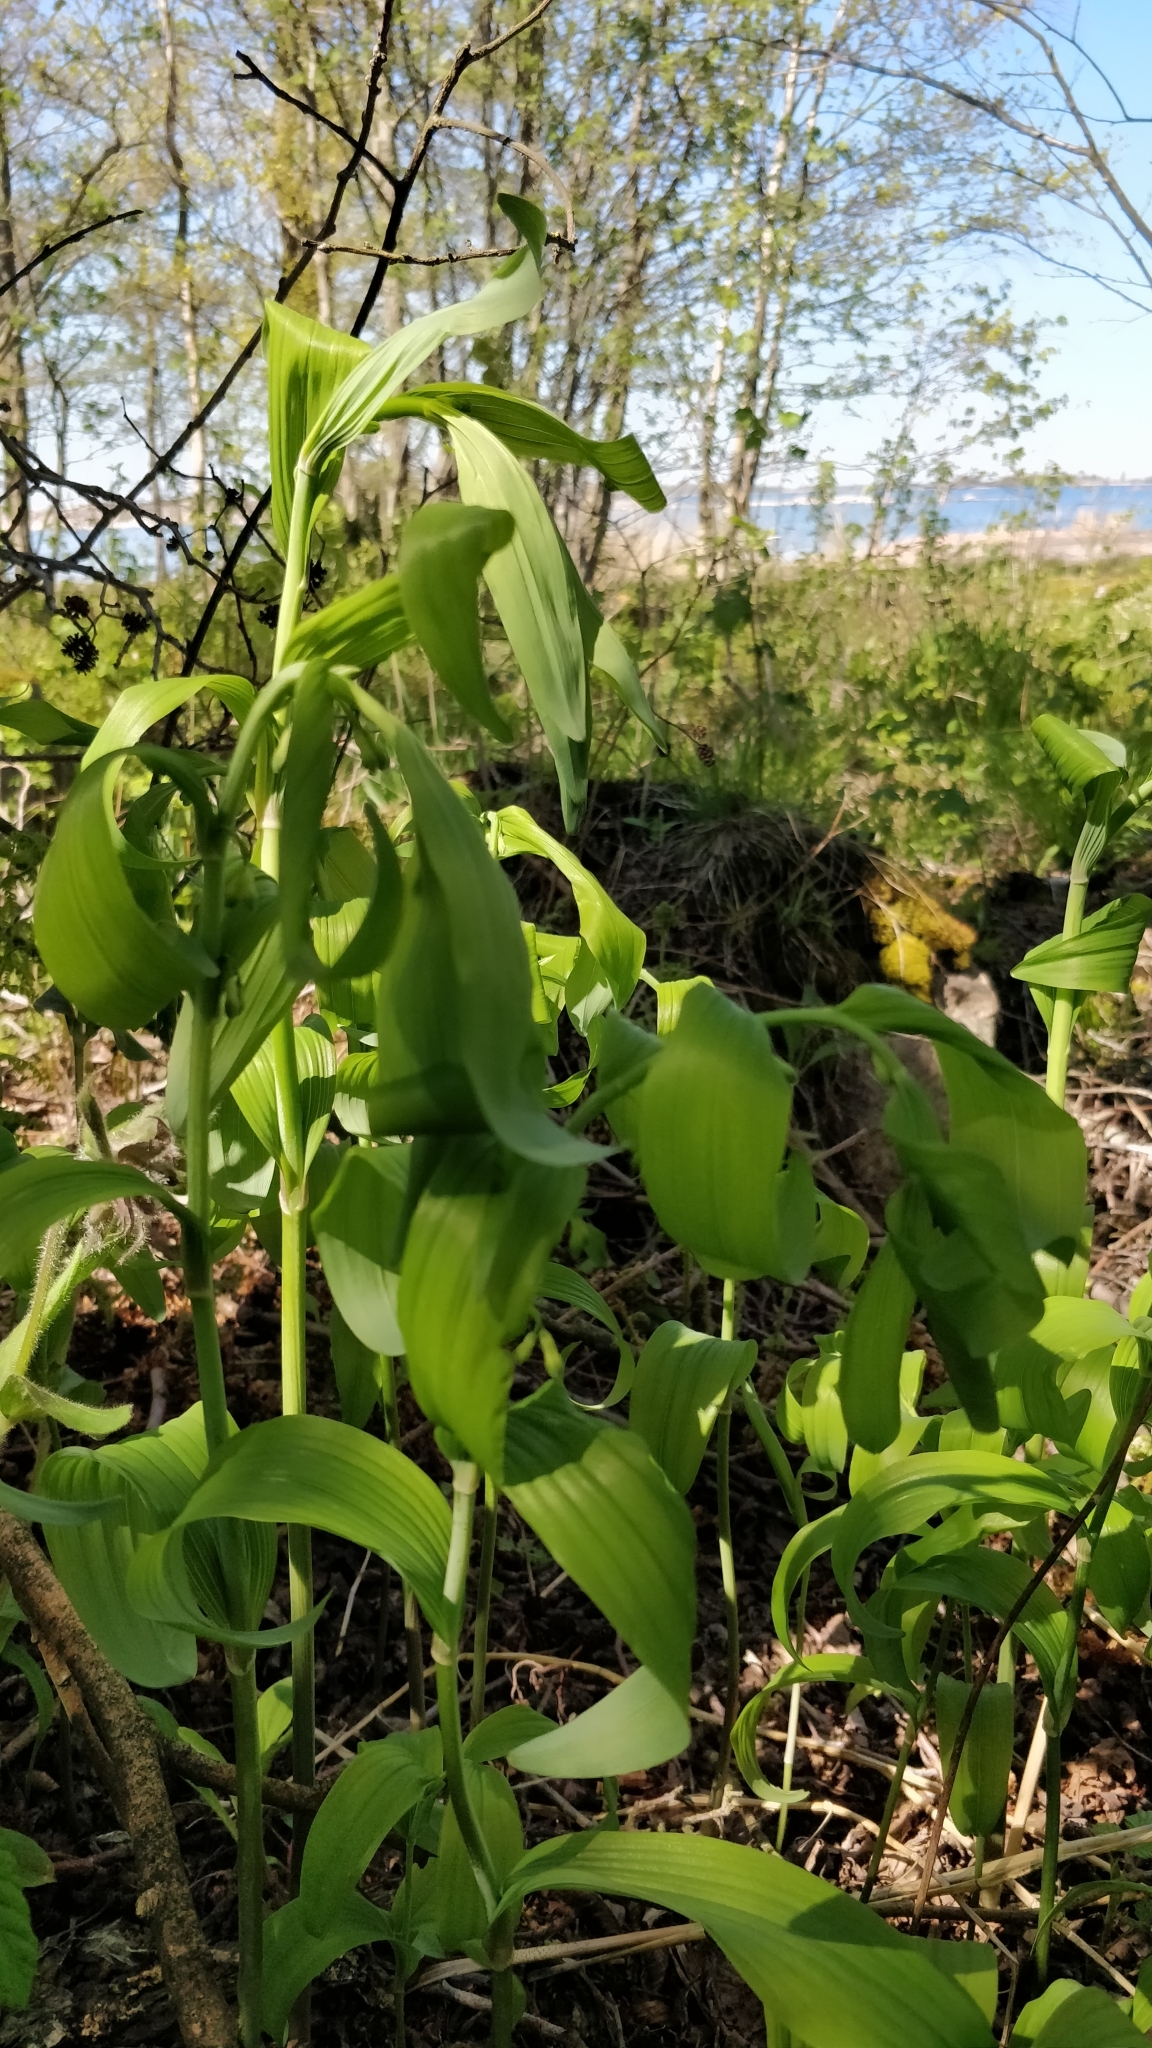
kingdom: Plantae
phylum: Tracheophyta
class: Liliopsida
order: Asparagales
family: Asparagaceae
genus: Polygonatum
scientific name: Polygonatum multiflorum
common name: Solomon's-seal
